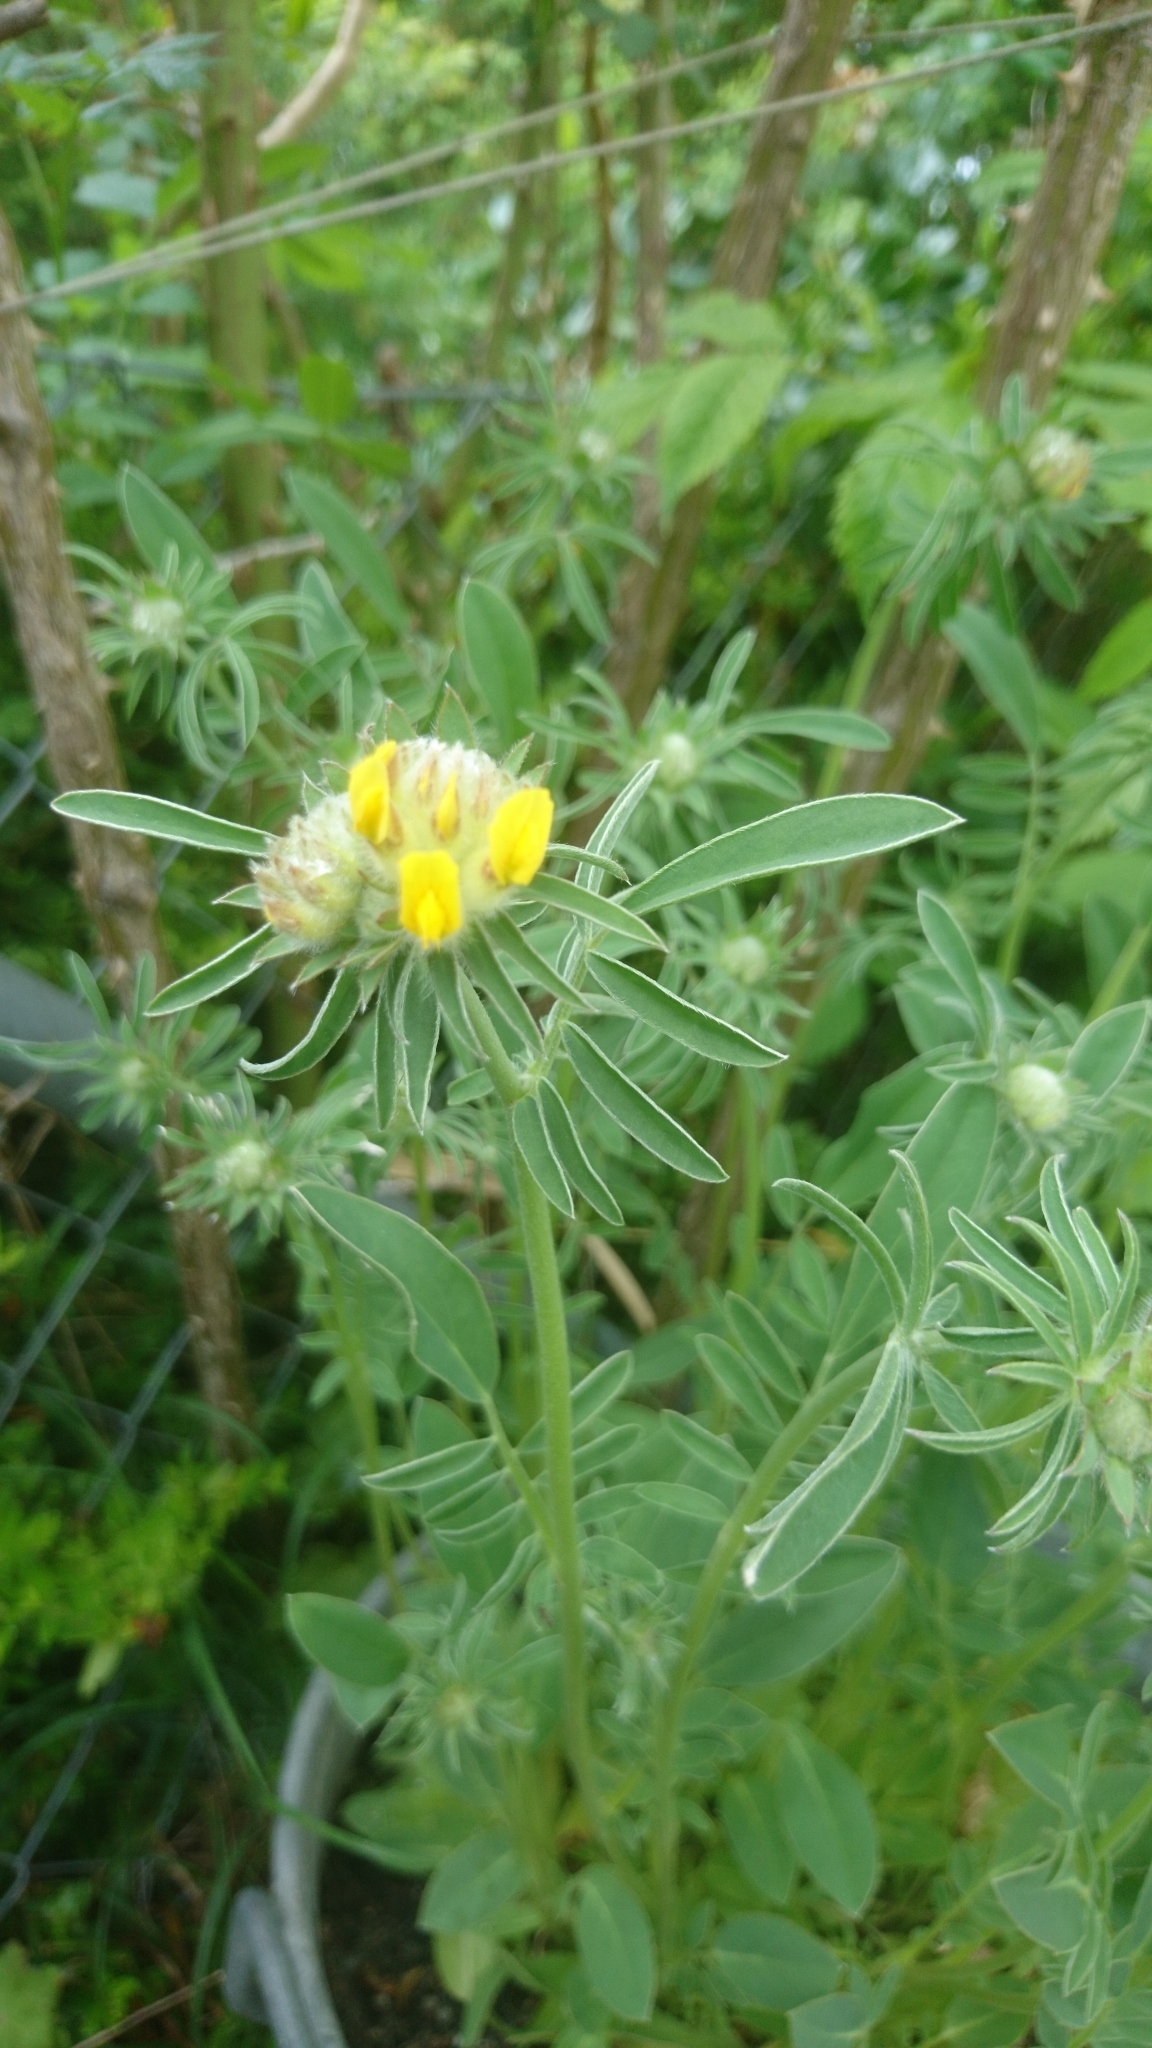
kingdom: Plantae
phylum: Tracheophyta
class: Magnoliopsida
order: Fabales
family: Fabaceae
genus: Anthyllis
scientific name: Anthyllis vulneraria
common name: Kidney vetch
